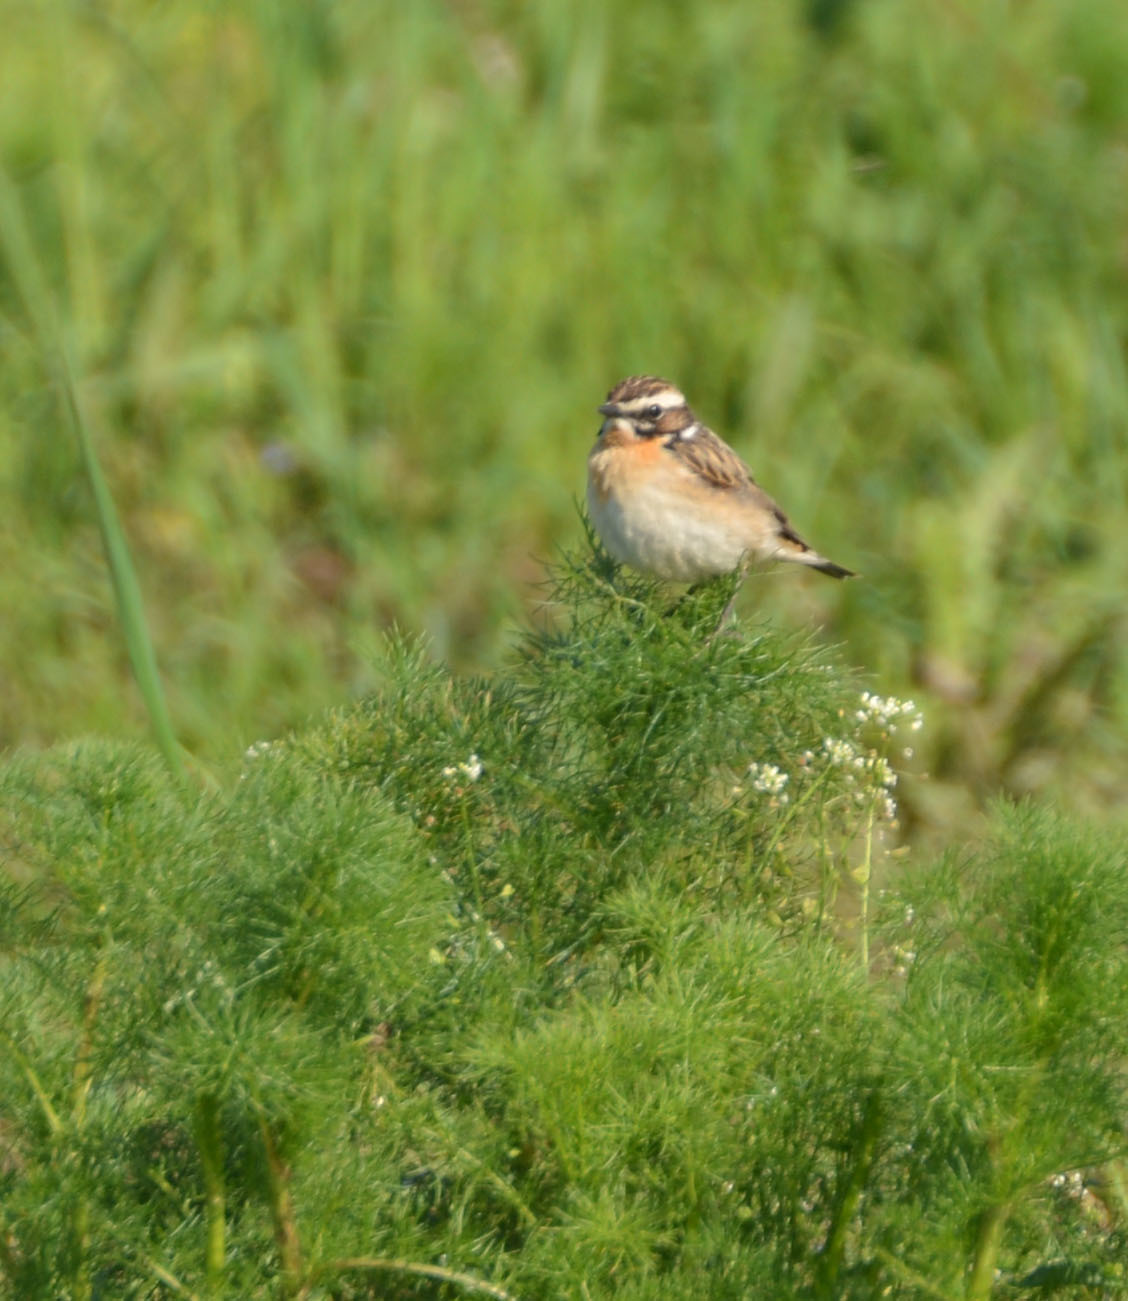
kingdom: Animalia
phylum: Chordata
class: Aves
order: Passeriformes
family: Muscicapidae
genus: Saxicola
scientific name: Saxicola rubetra
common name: Whinchat
